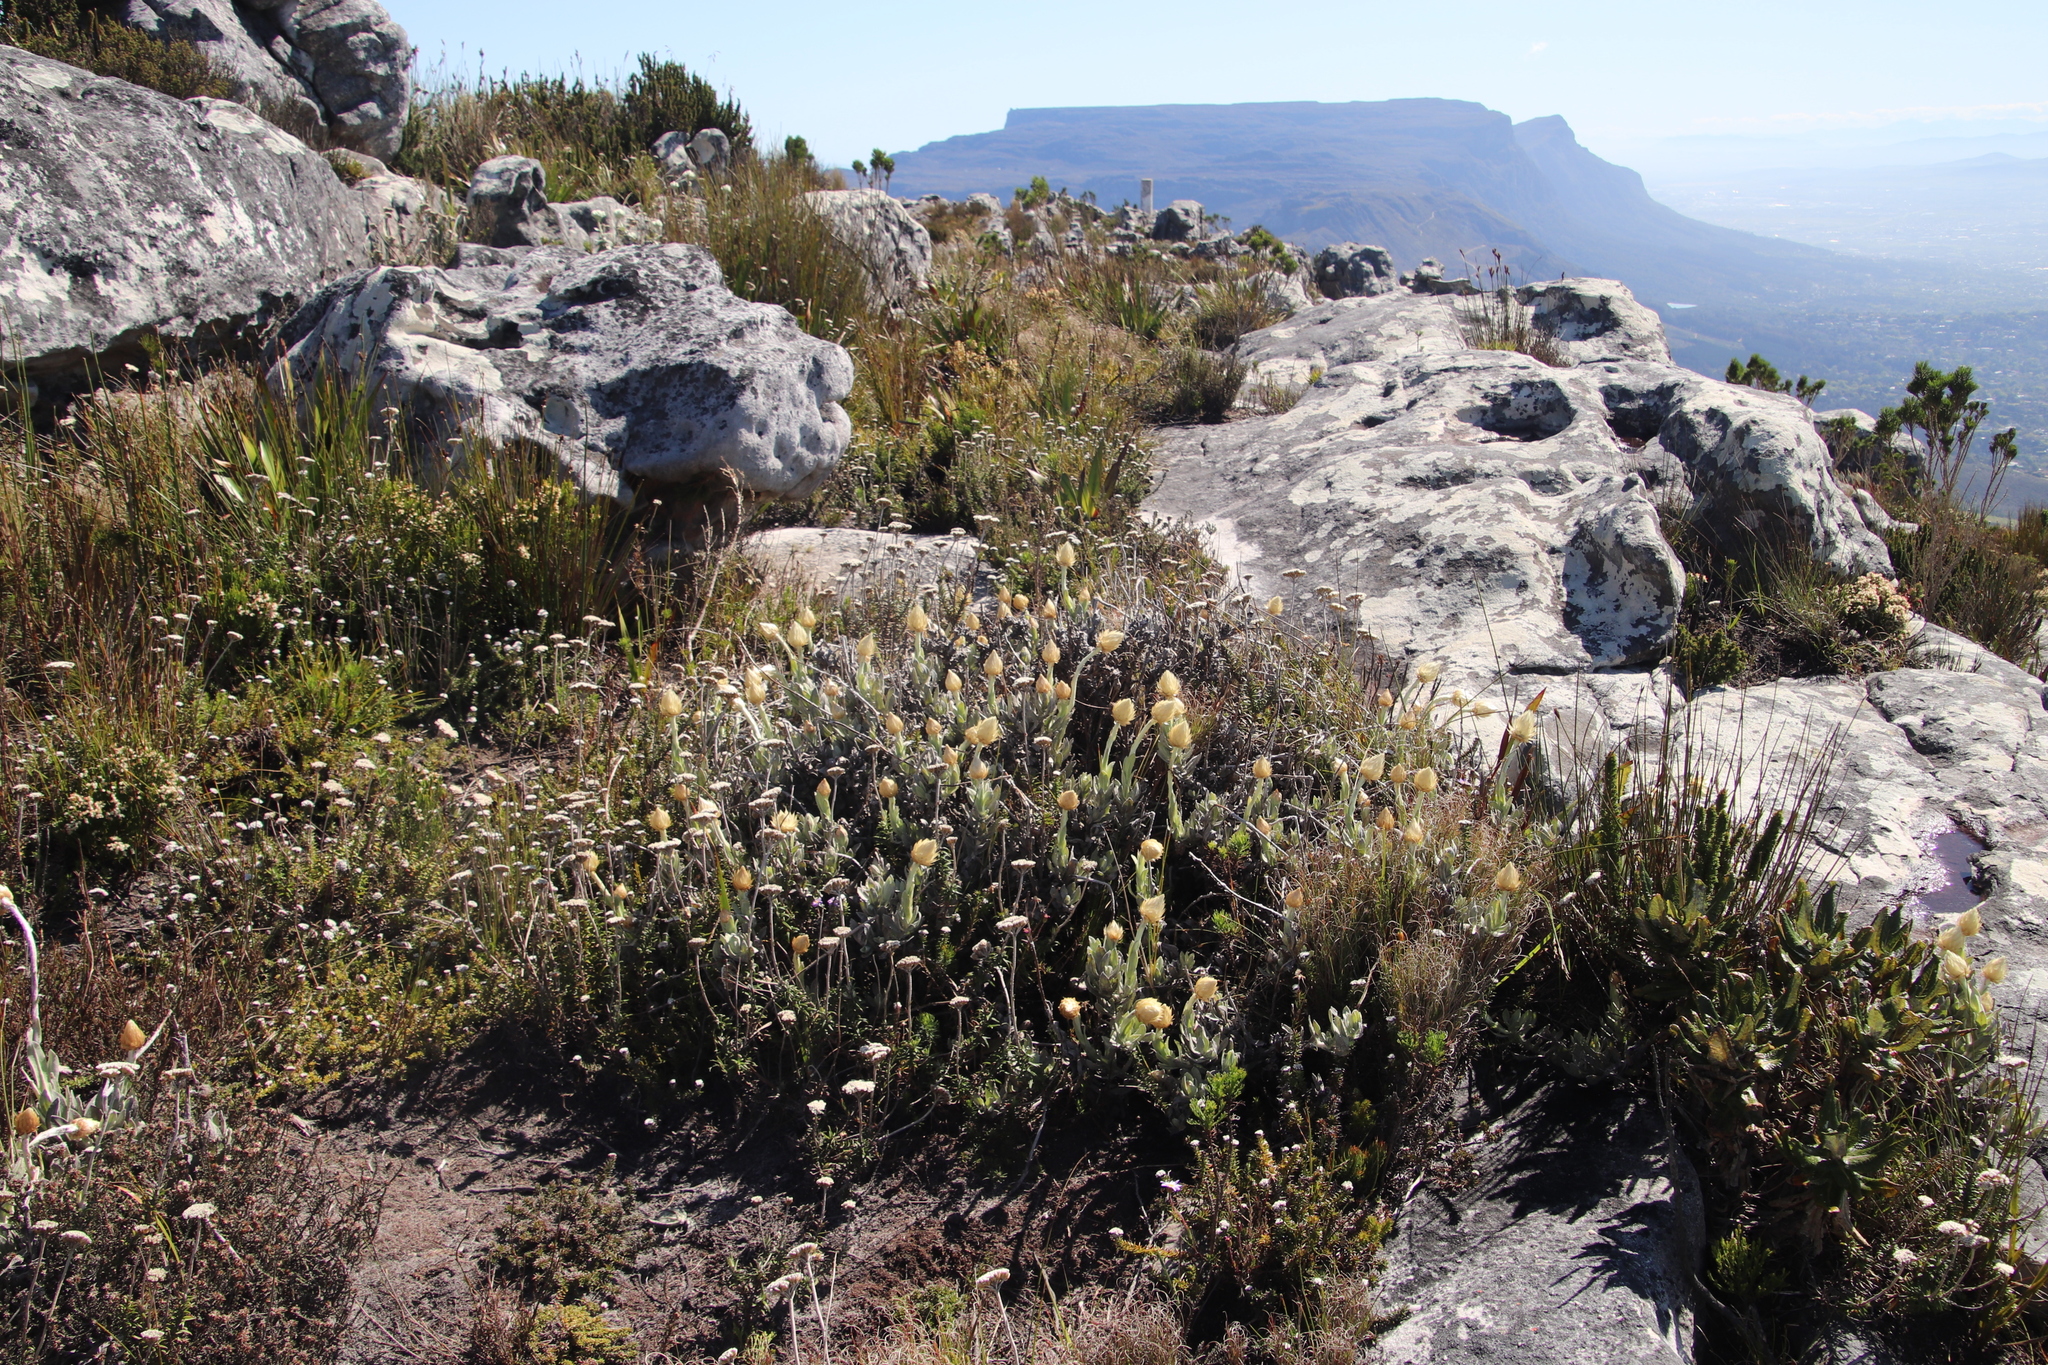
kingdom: Plantae
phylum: Tracheophyta
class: Magnoliopsida
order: Asterales
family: Asteraceae
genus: Syncarpha
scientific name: Syncarpha speciosissima
